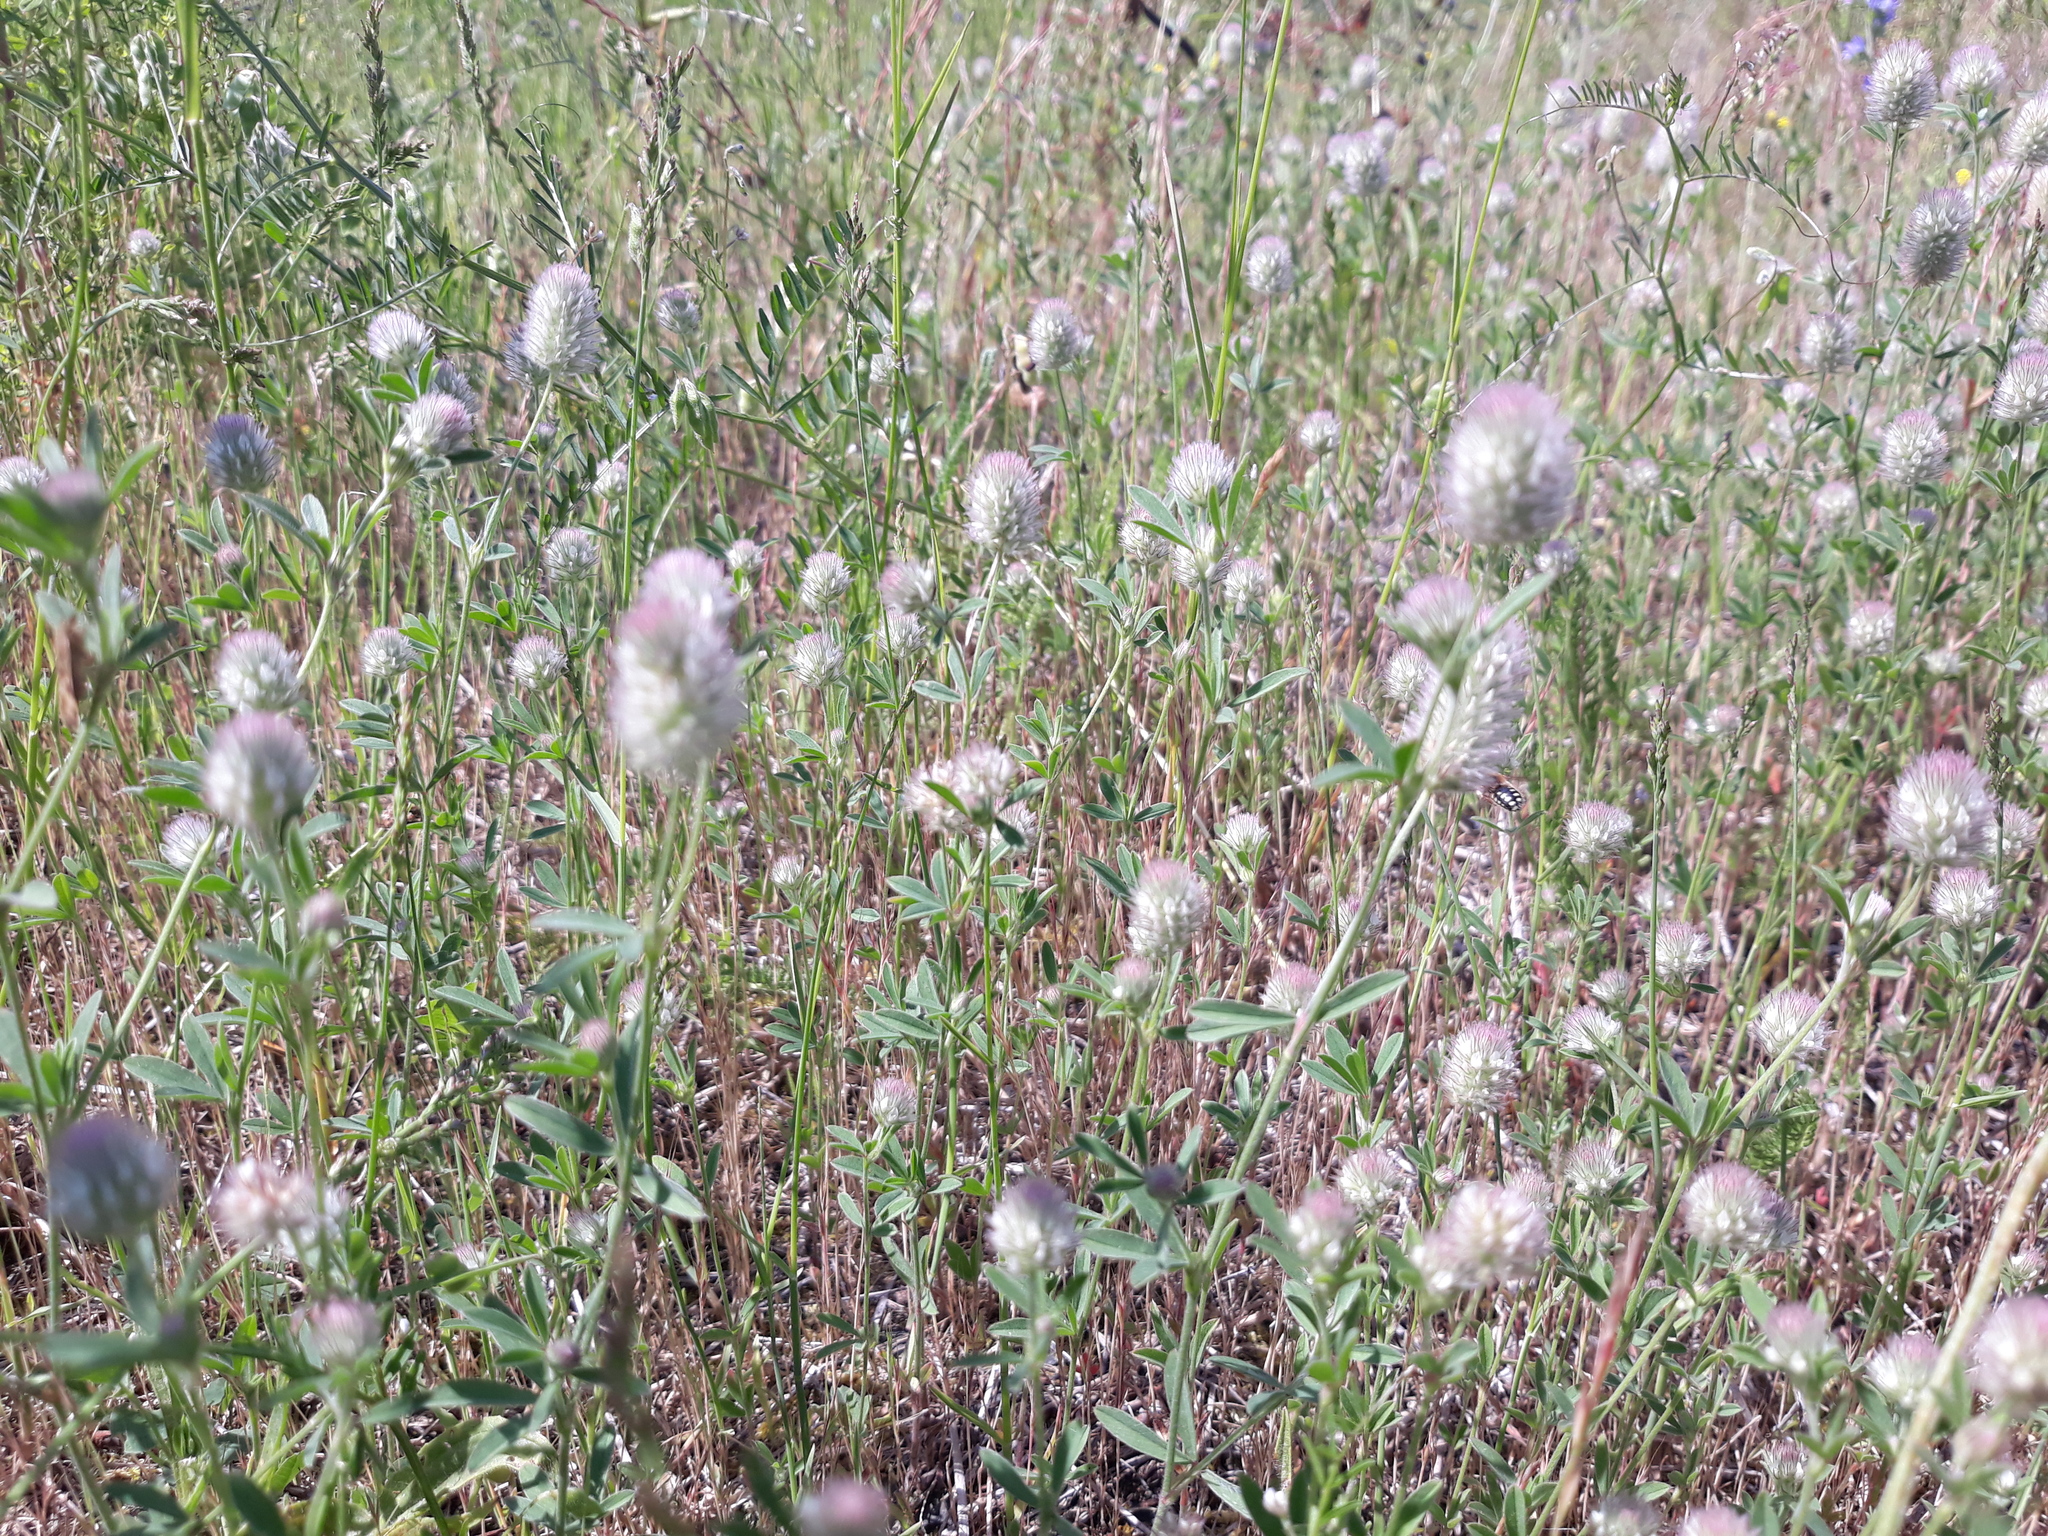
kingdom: Plantae
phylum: Tracheophyta
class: Magnoliopsida
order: Fabales
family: Fabaceae
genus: Trifolium
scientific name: Trifolium arvense
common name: Hare's-foot clover
